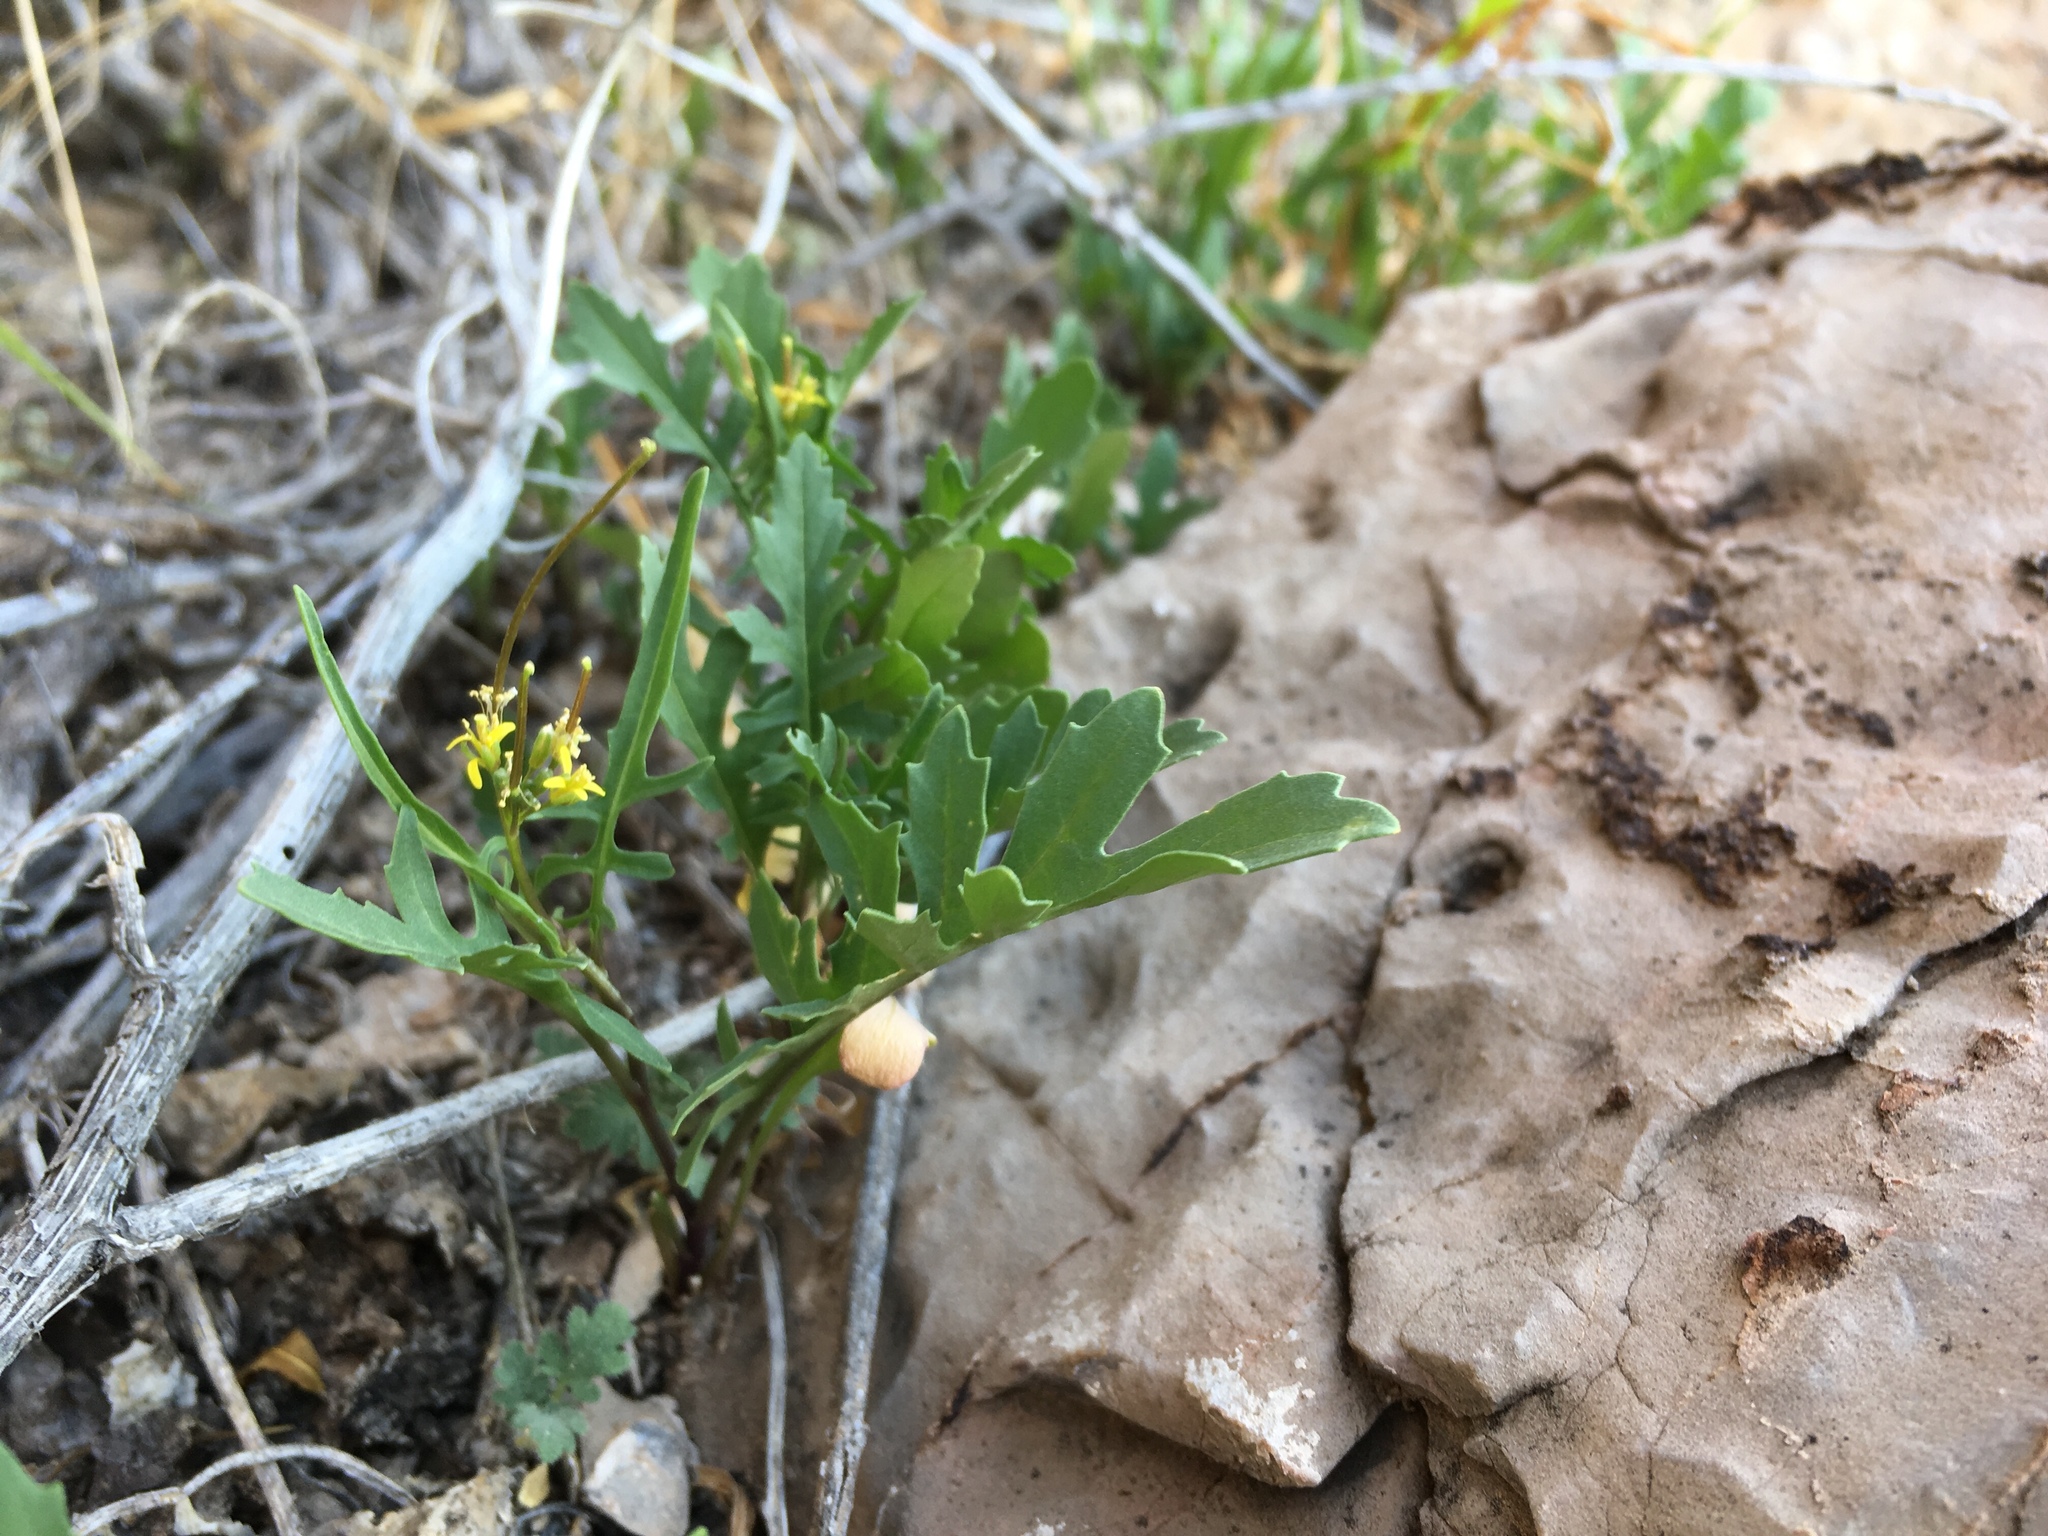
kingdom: Plantae
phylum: Tracheophyta
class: Magnoliopsida
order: Brassicales
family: Brassicaceae
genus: Sisymbrium
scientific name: Sisymbrium irio
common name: London rocket
